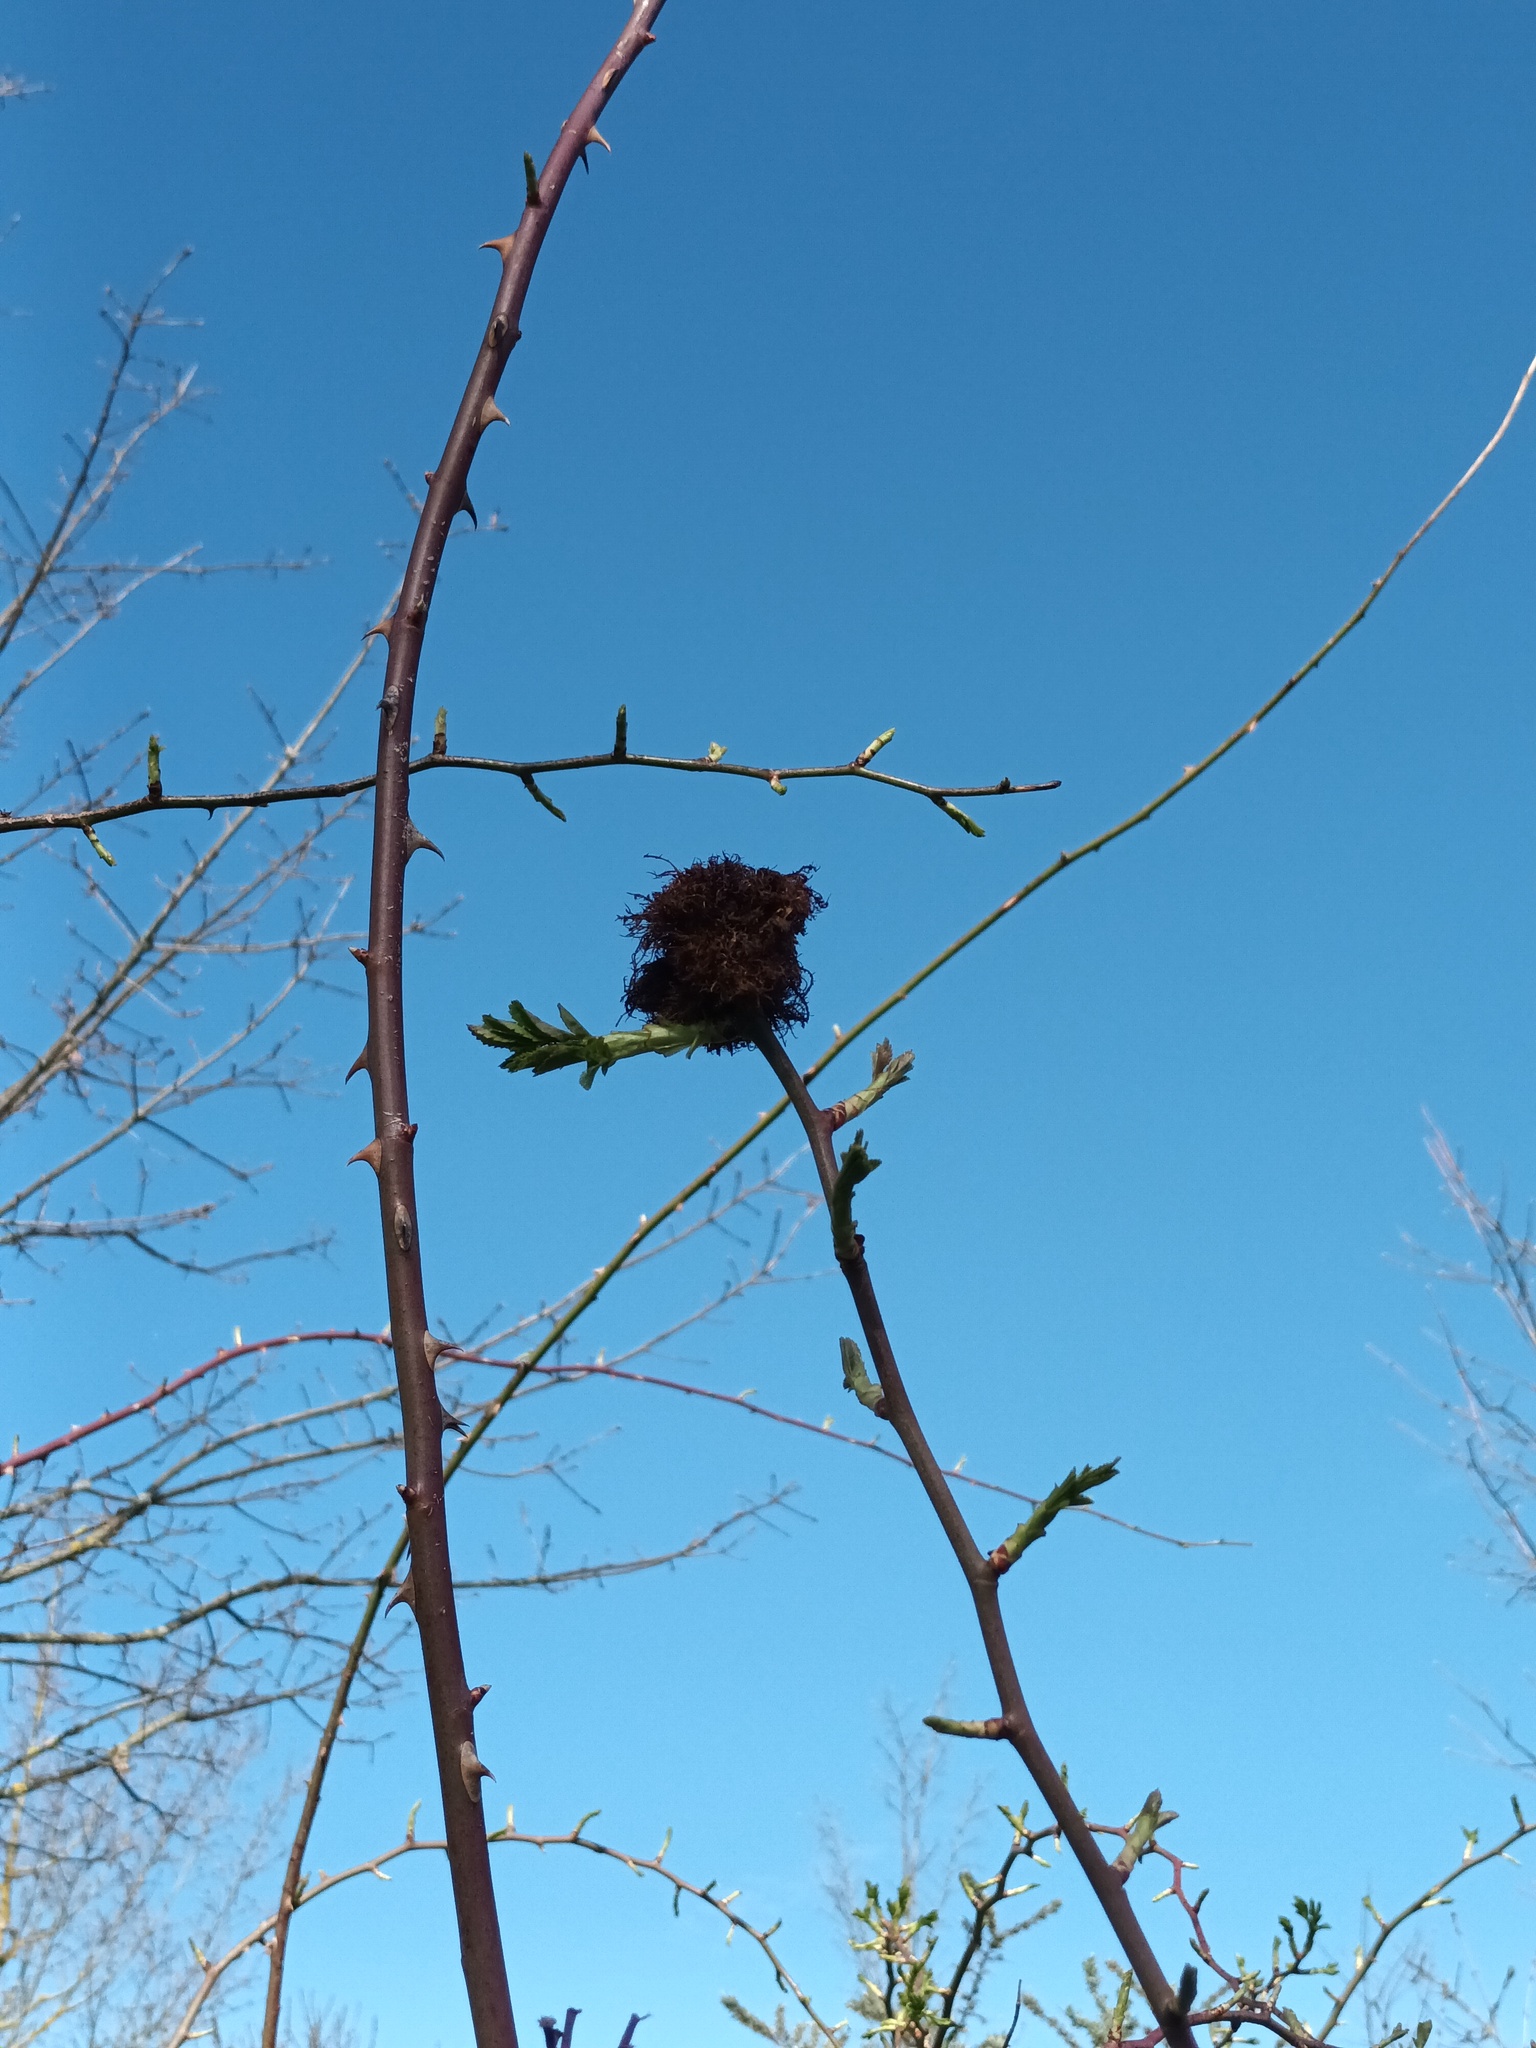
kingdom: Animalia
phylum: Arthropoda
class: Insecta
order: Hymenoptera
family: Cynipidae
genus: Diplolepis
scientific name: Diplolepis rosae
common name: Bedeguar gall
